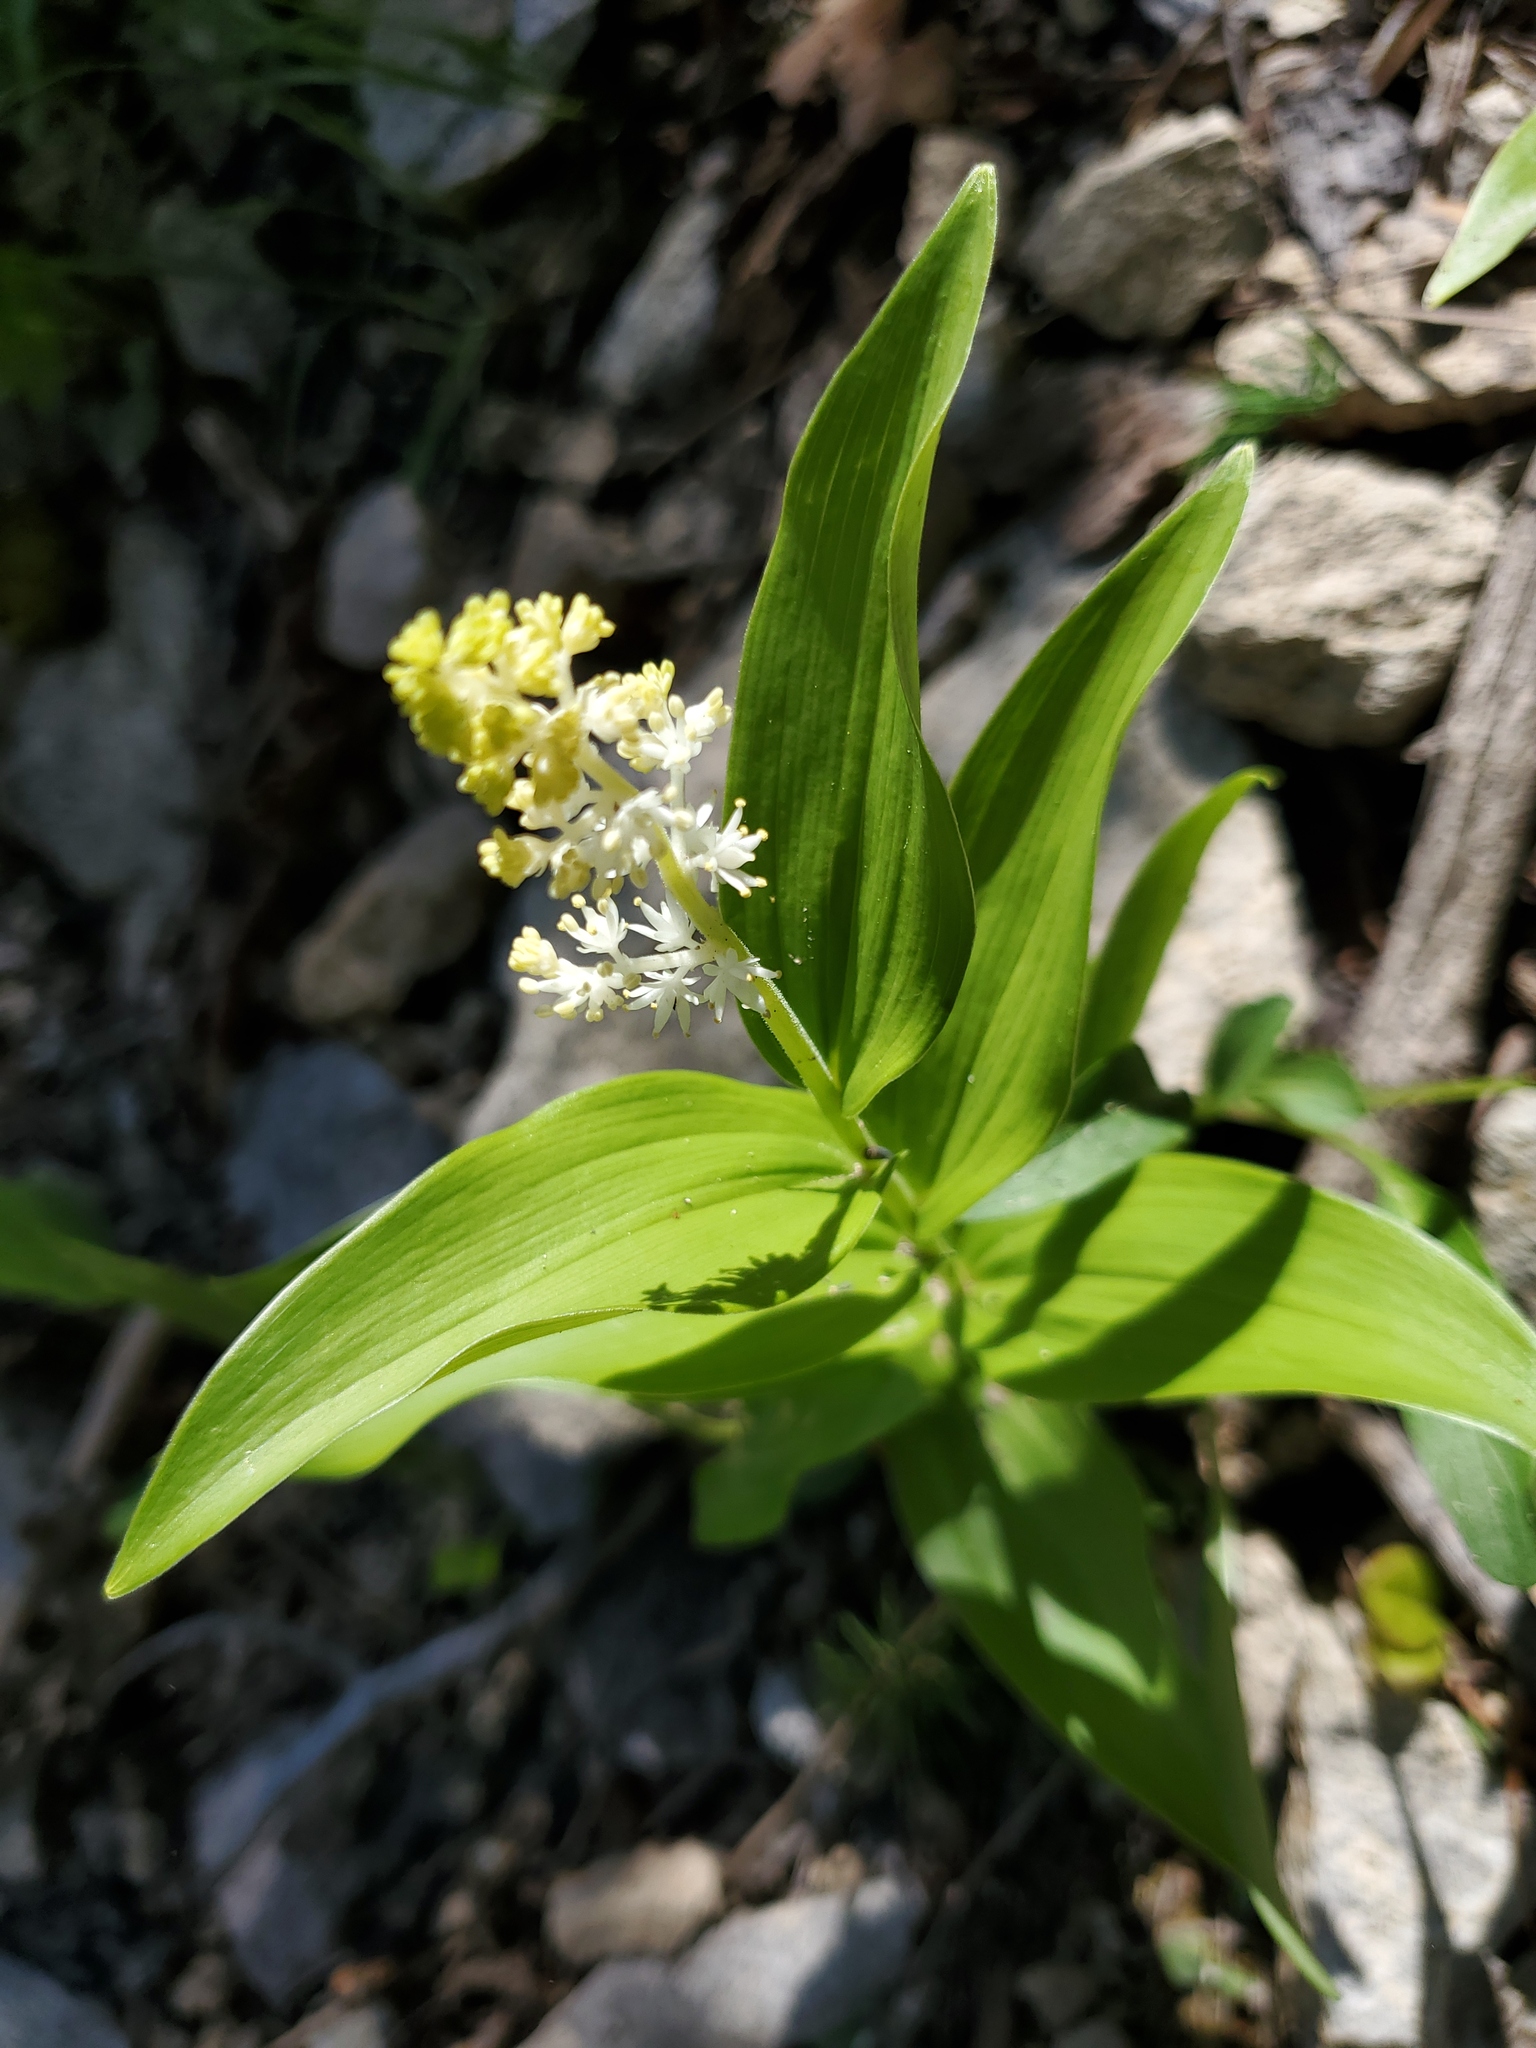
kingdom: Plantae
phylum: Tracheophyta
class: Liliopsida
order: Asparagales
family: Asparagaceae
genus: Maianthemum
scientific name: Maianthemum racemosum
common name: False spikenard
